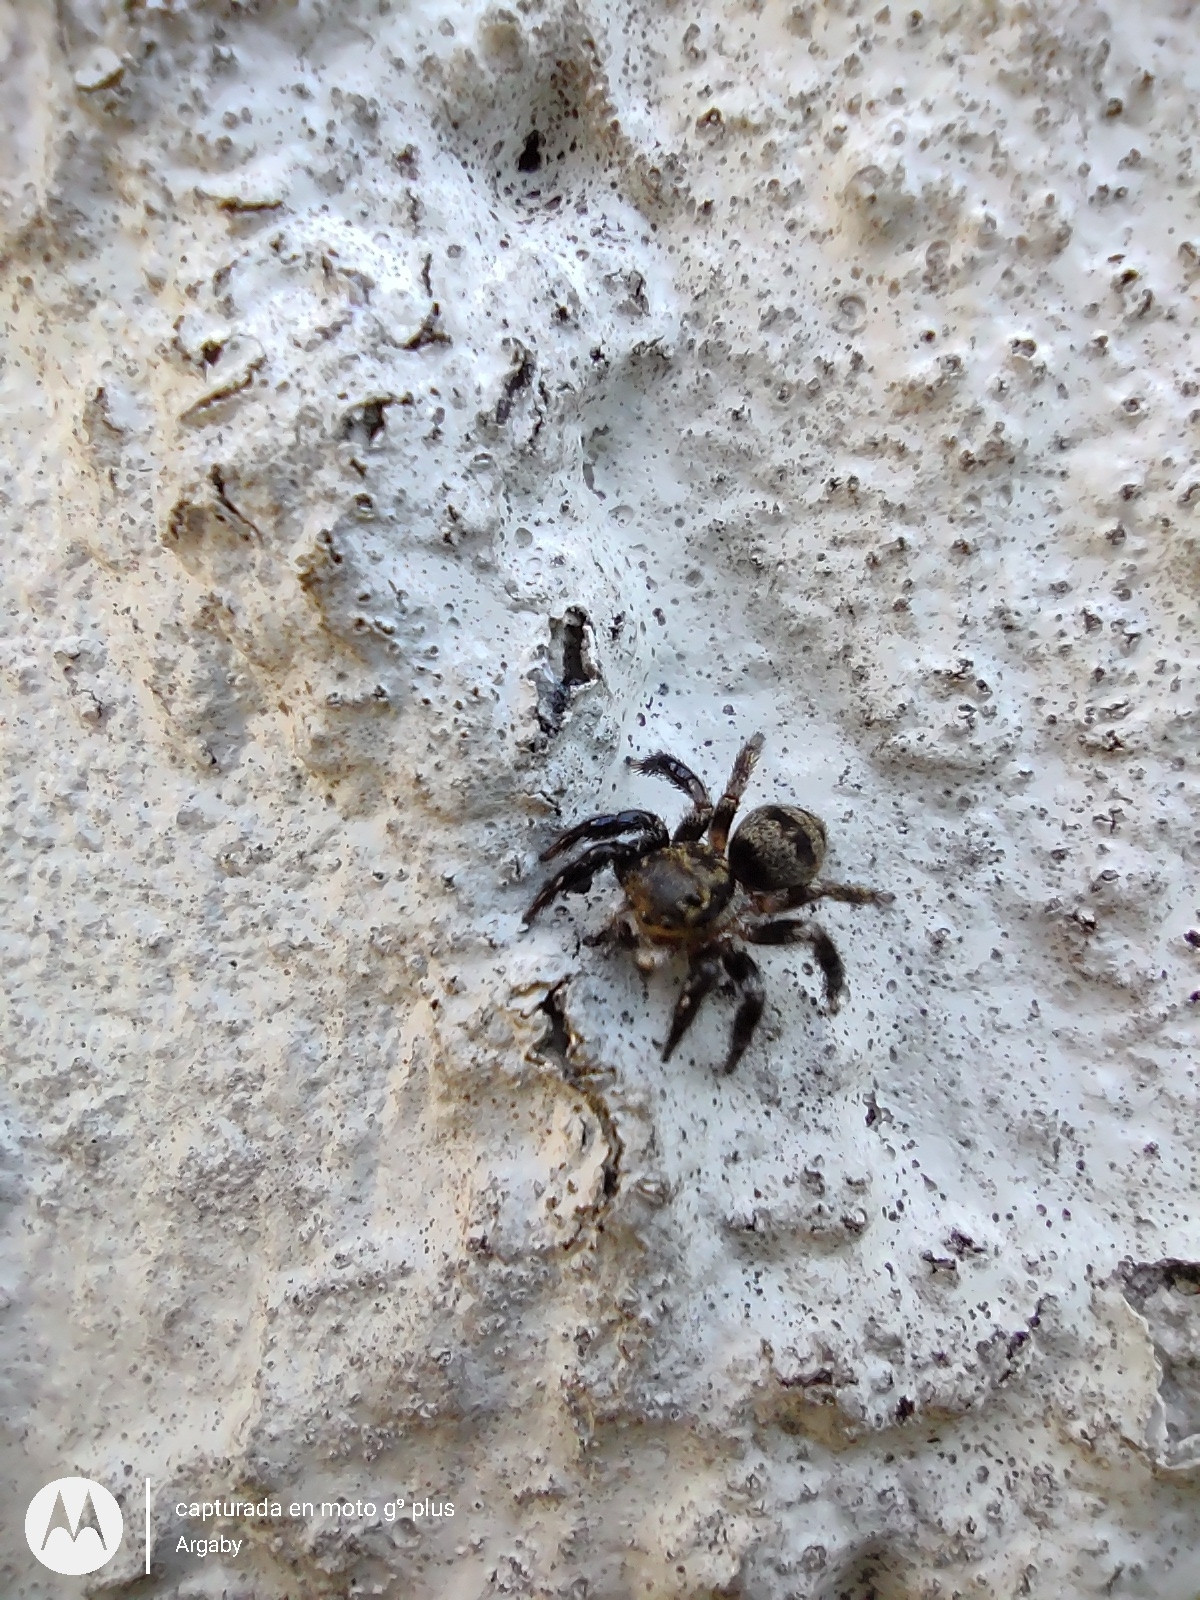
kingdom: Animalia
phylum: Arthropoda
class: Arachnida
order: Araneae
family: Salticidae
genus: Corythalia
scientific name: Corythalia conferta
